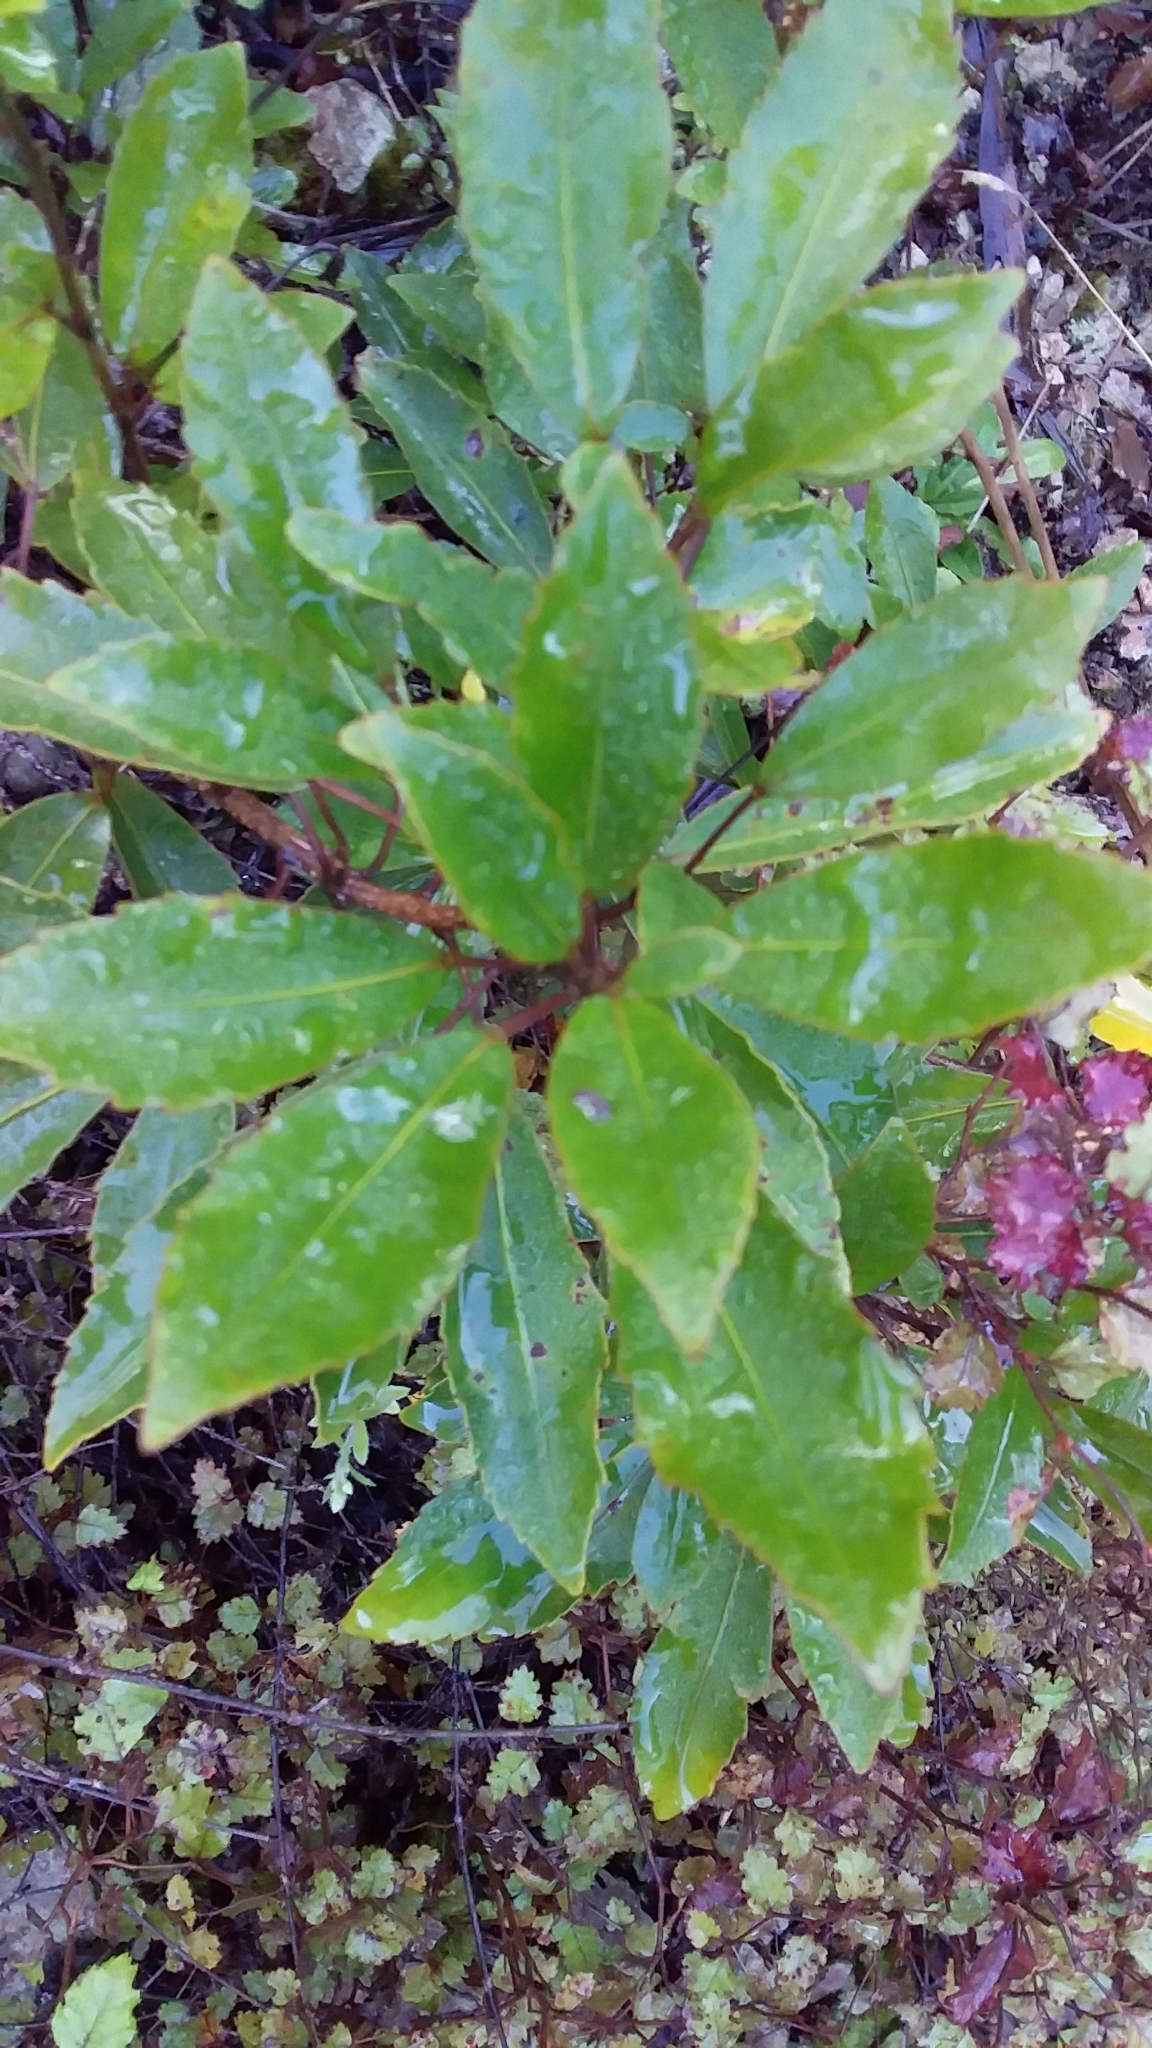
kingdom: Plantae
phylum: Tracheophyta
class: Magnoliopsida
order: Apiales
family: Araliaceae
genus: Raukaua
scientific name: Raukaua simplex
